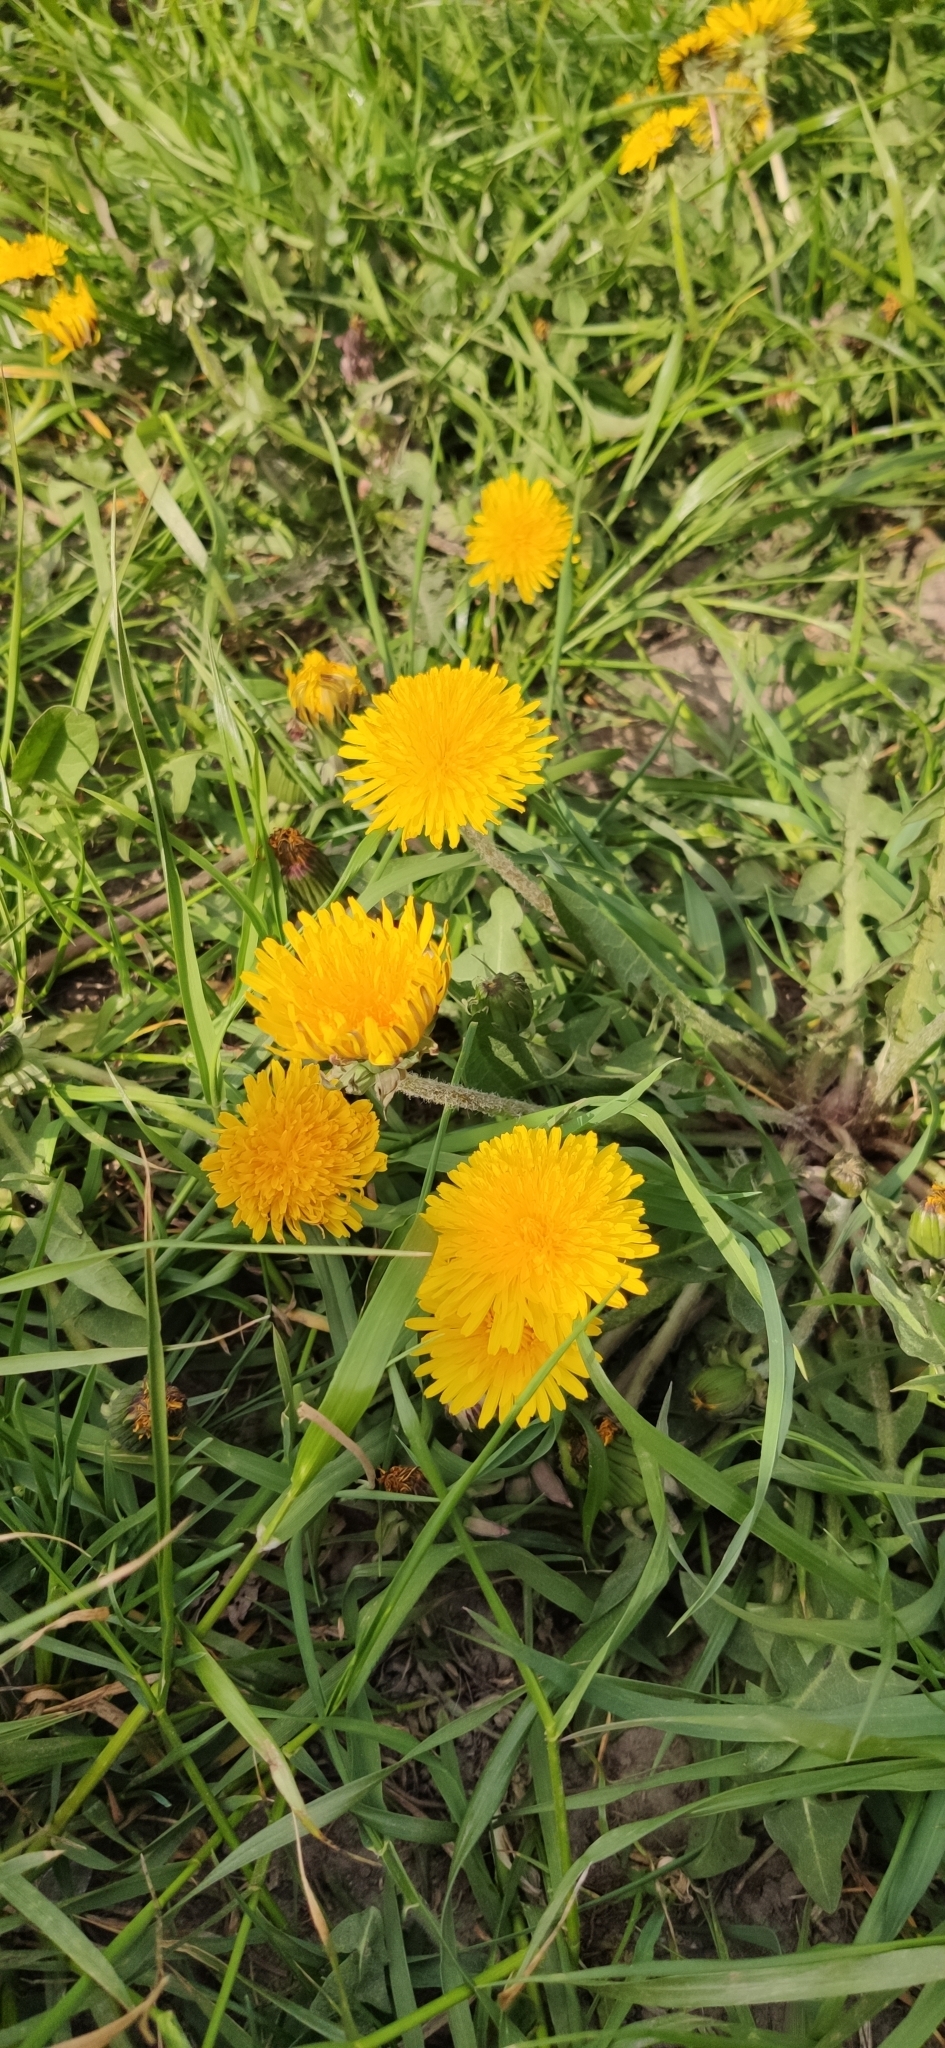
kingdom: Plantae
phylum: Tracheophyta
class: Magnoliopsida
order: Asterales
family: Asteraceae
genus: Taraxacum
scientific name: Taraxacum officinale
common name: Common dandelion
